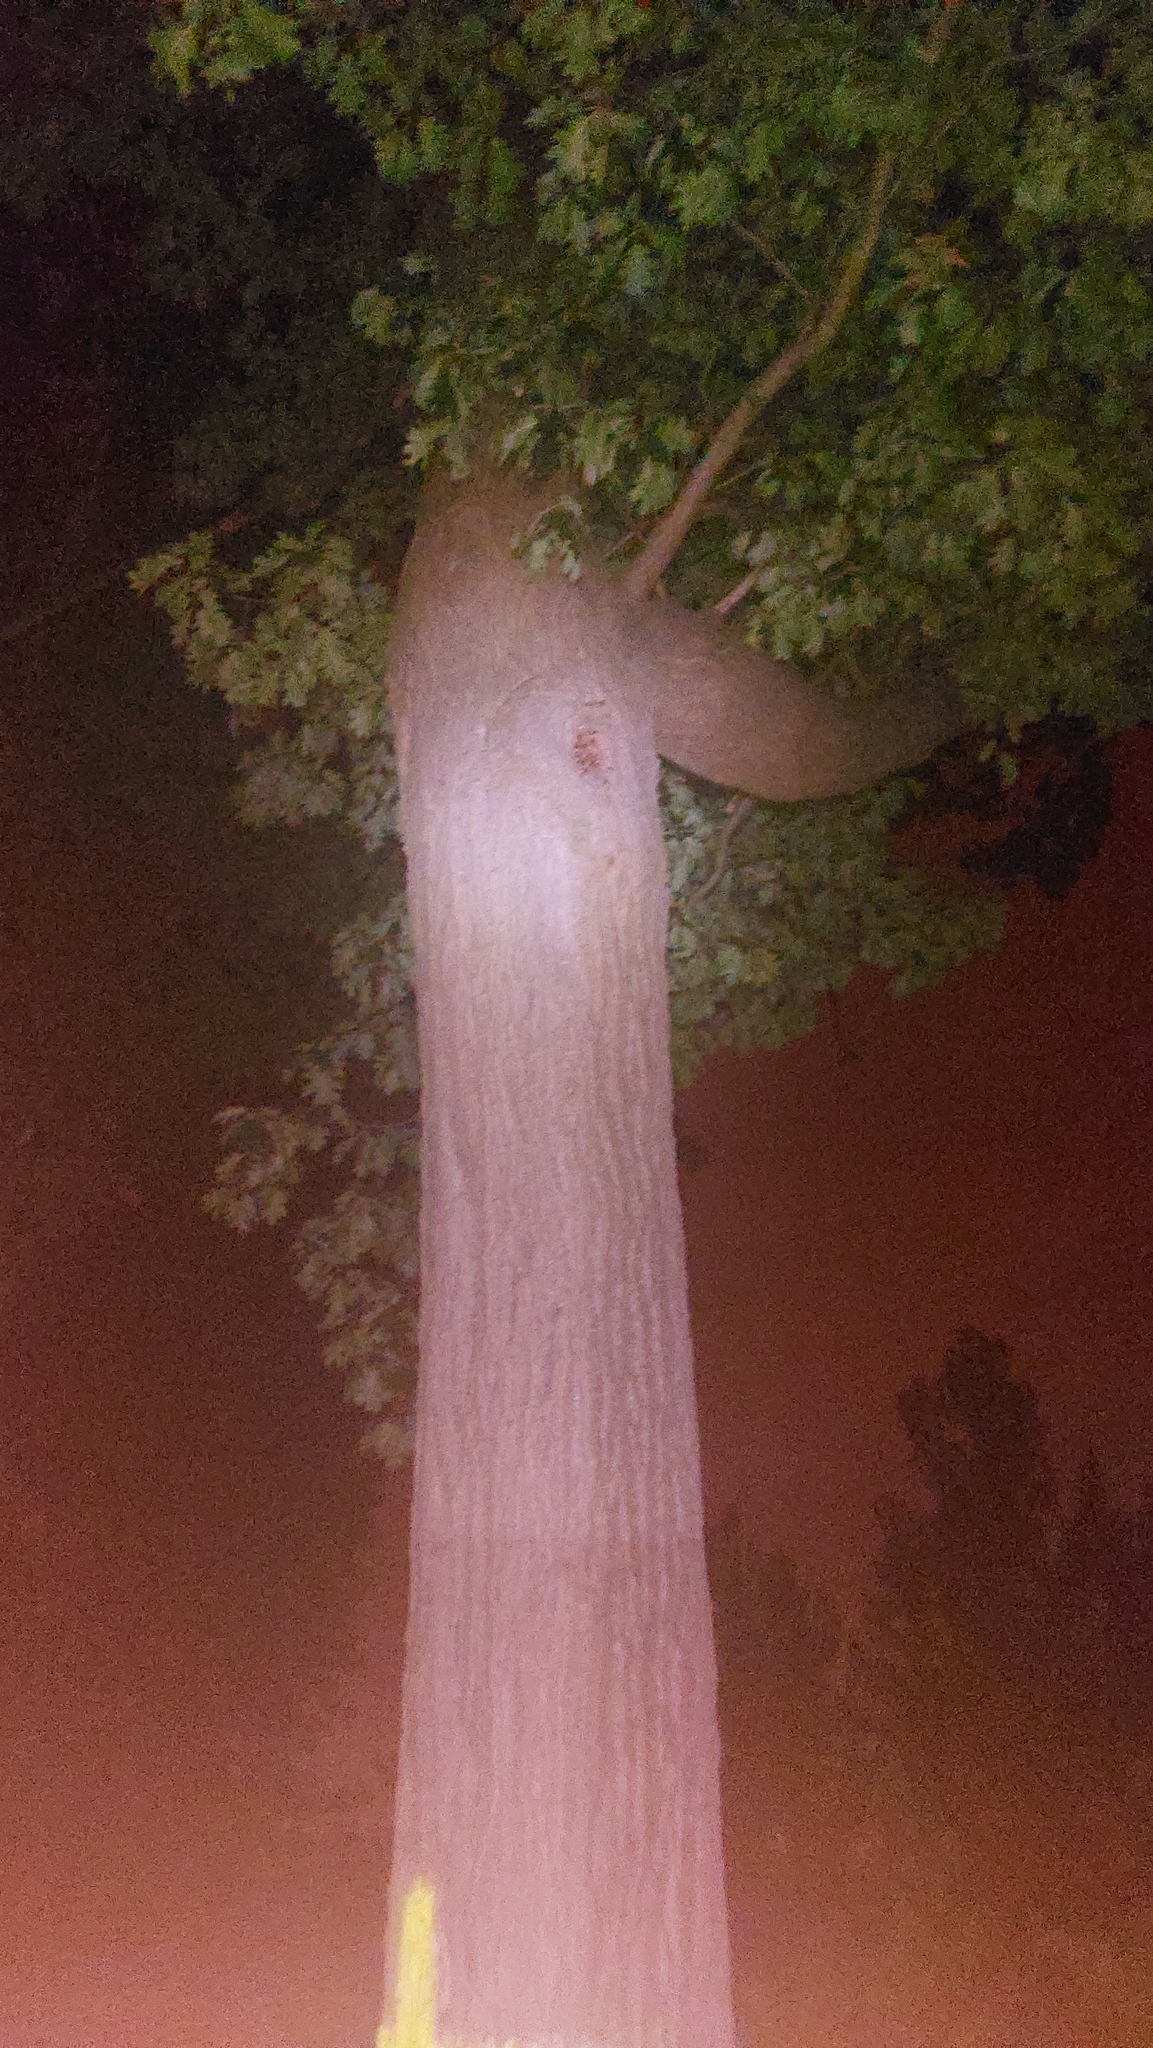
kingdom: Animalia
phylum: Arthropoda
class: Insecta
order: Hymenoptera
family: Vespidae
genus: Vespa
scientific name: Vespa crabro
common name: Hornet
